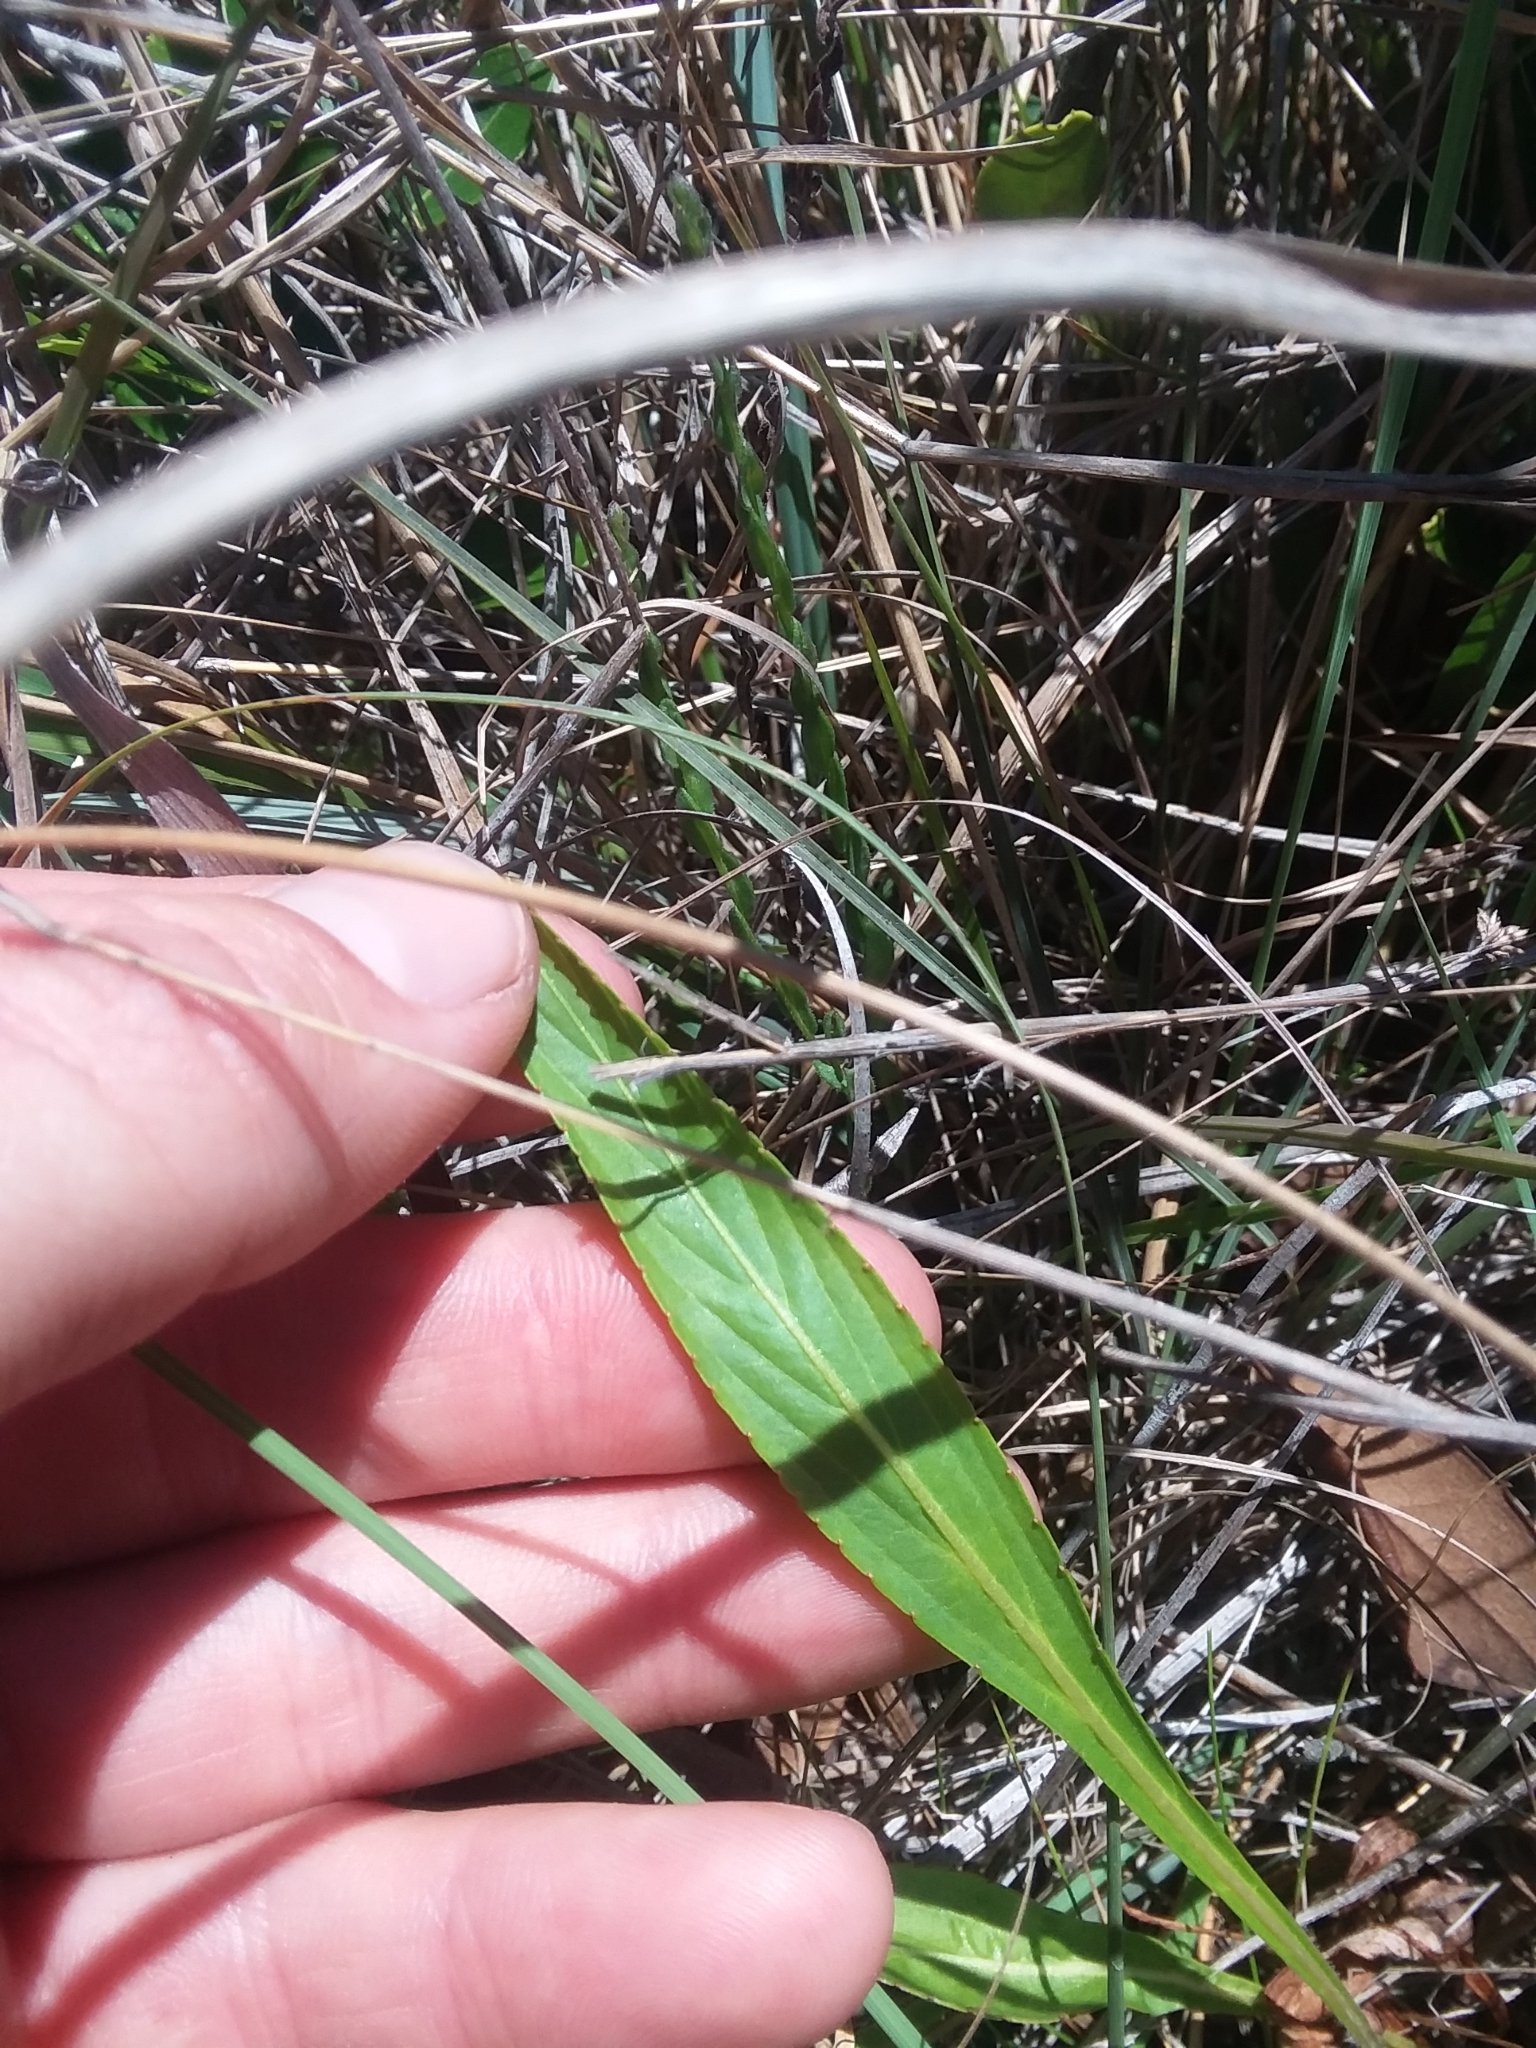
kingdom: Plantae
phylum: Tracheophyta
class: Magnoliopsida
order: Malpighiales
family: Violaceae
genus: Viola
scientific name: Viola lanceolata
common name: Bog white violet
